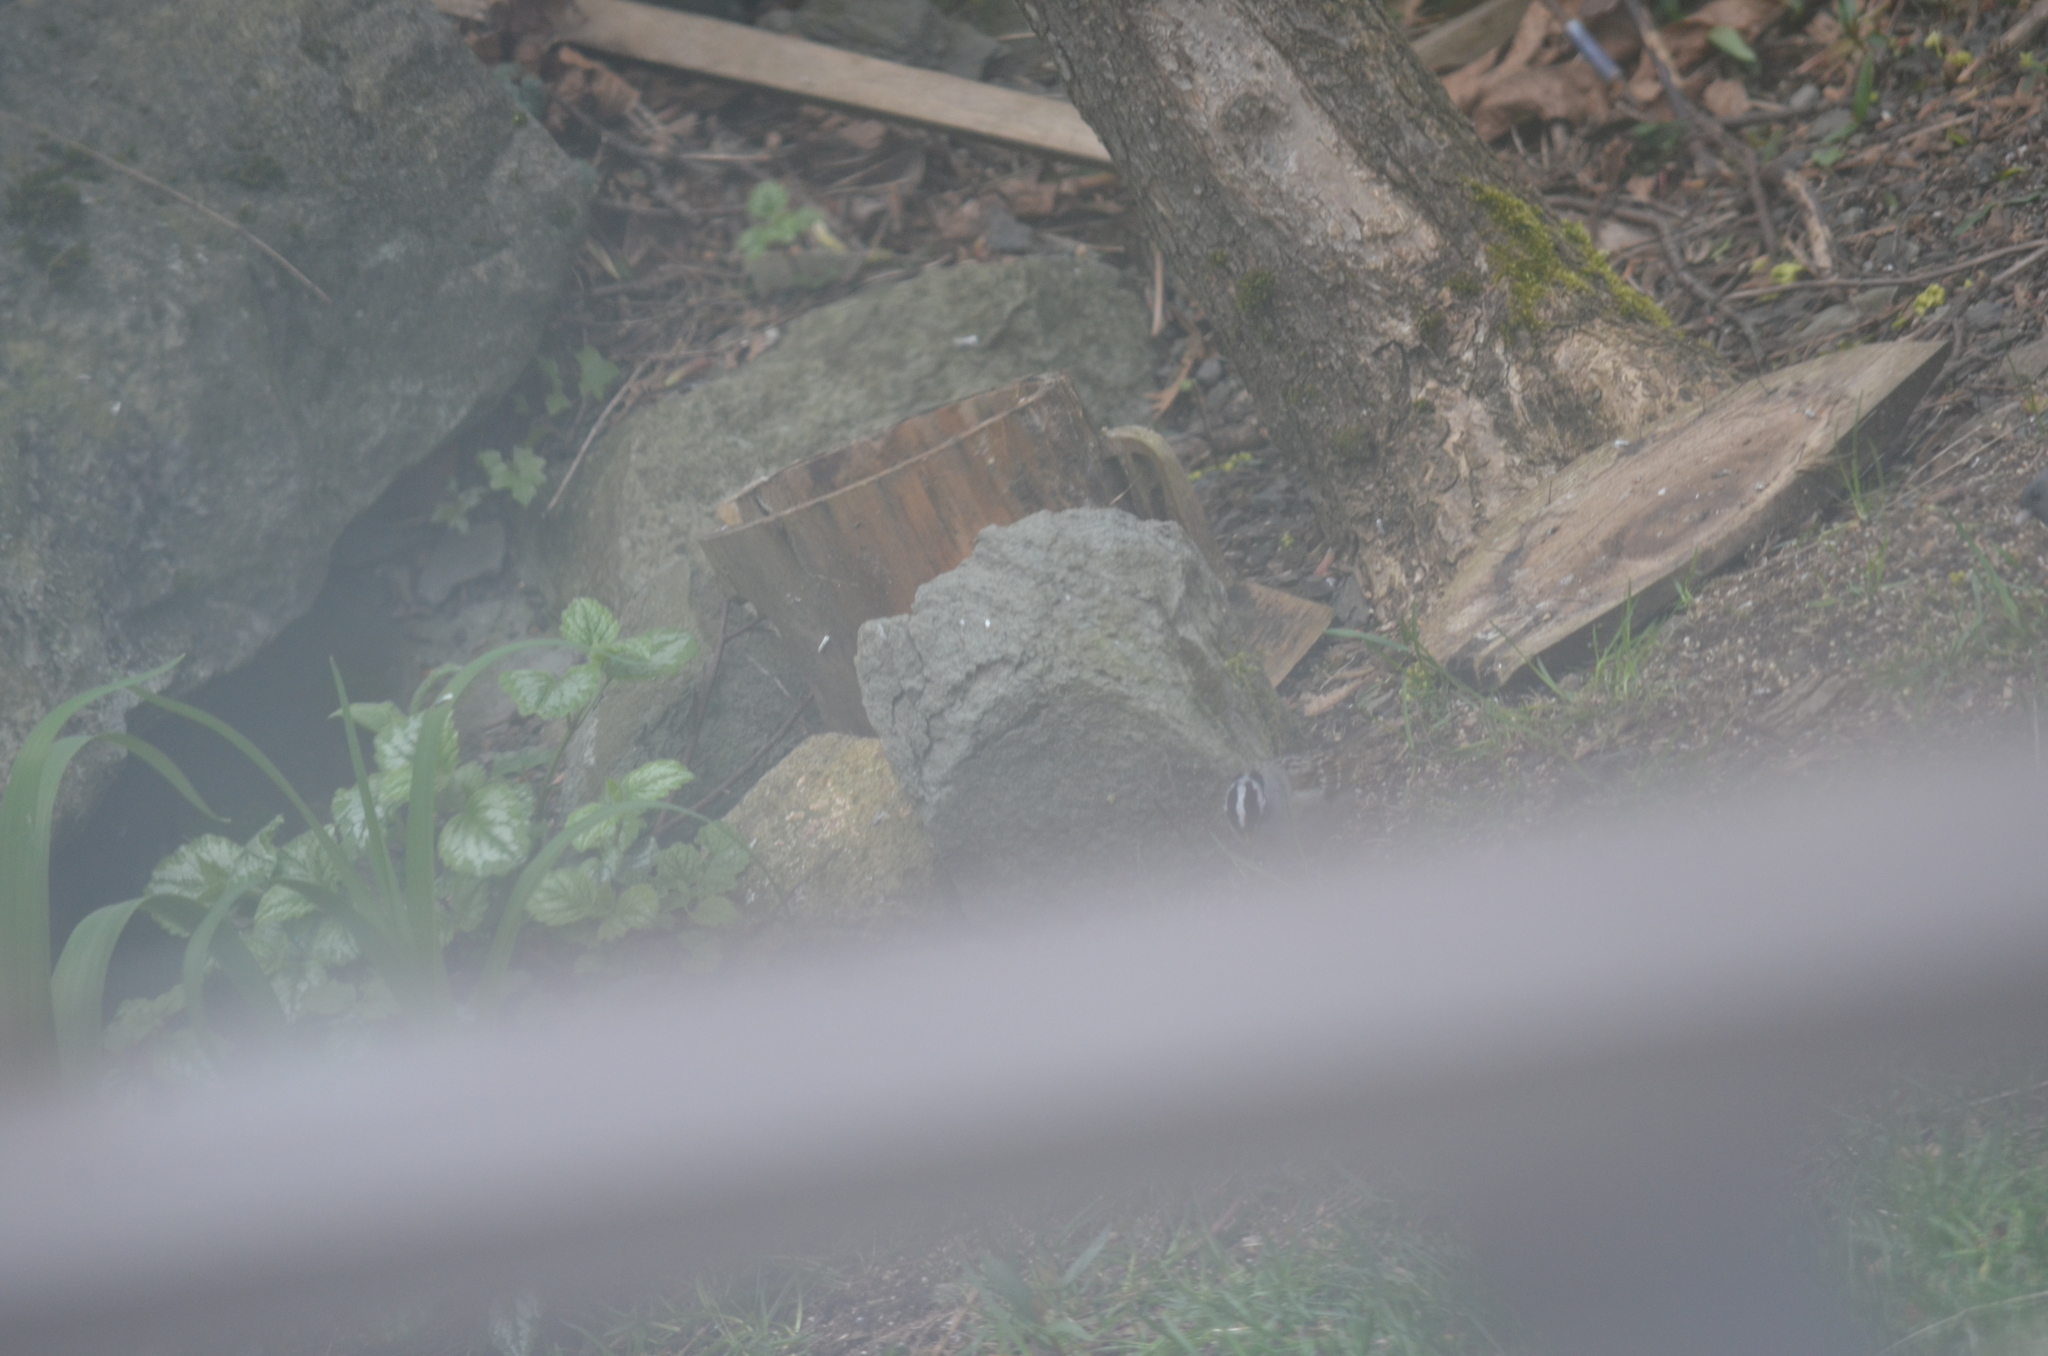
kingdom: Animalia
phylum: Chordata
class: Aves
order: Passeriformes
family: Passerellidae
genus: Zonotrichia
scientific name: Zonotrichia leucophrys
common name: White-crowned sparrow
